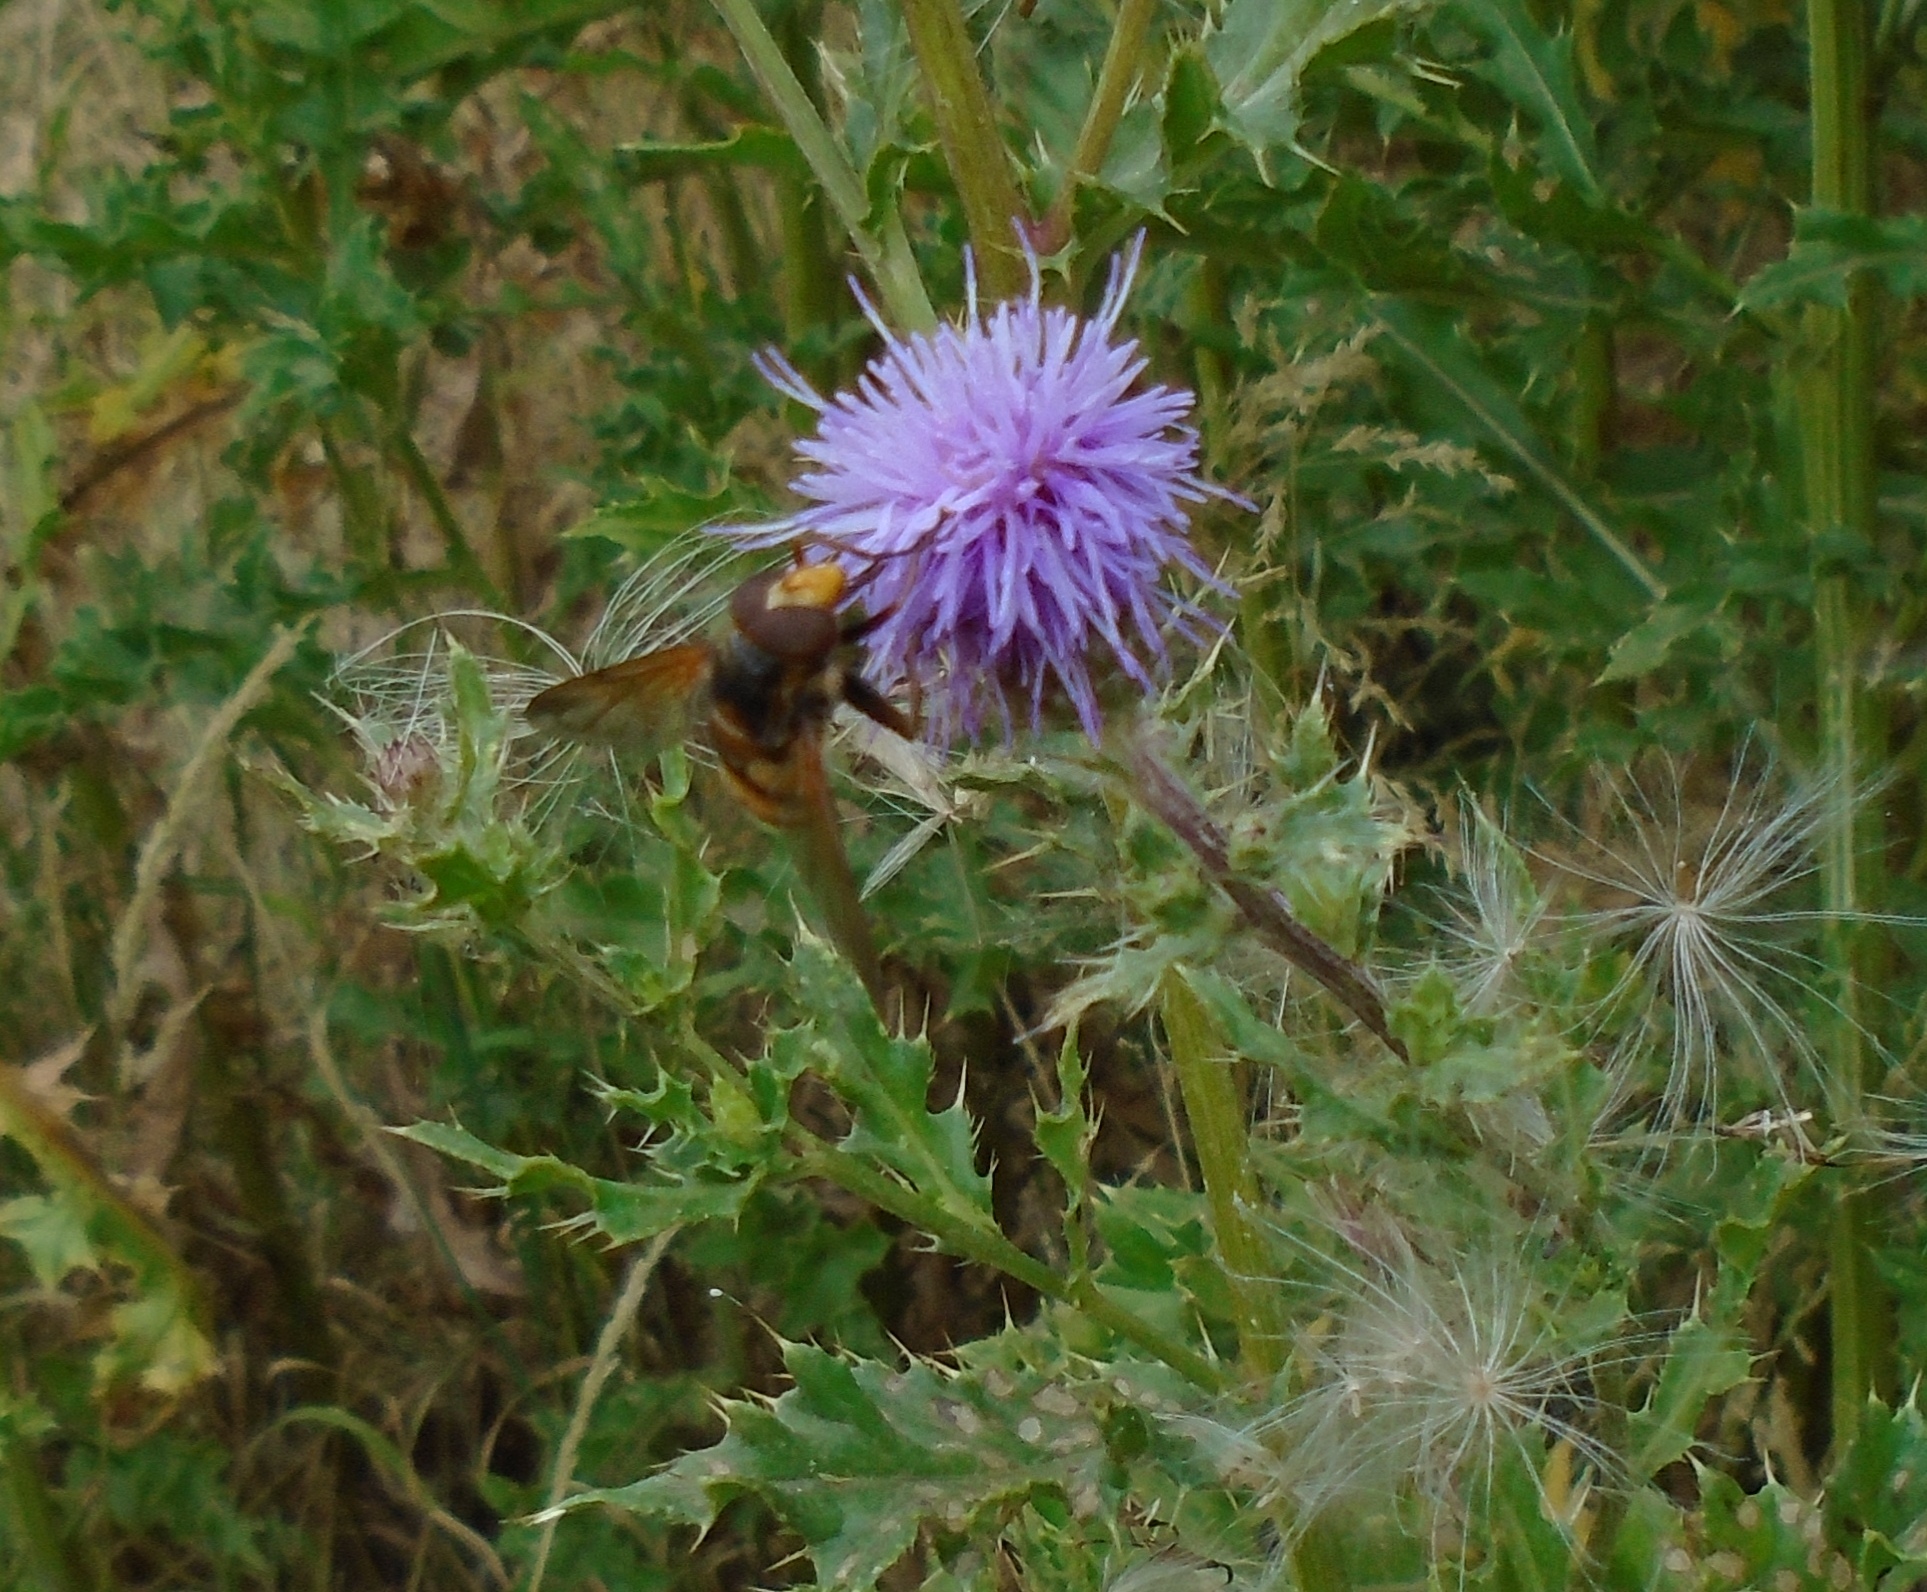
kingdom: Animalia
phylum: Arthropoda
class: Insecta
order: Diptera
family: Syrphidae
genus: Volucella
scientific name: Volucella inanis
